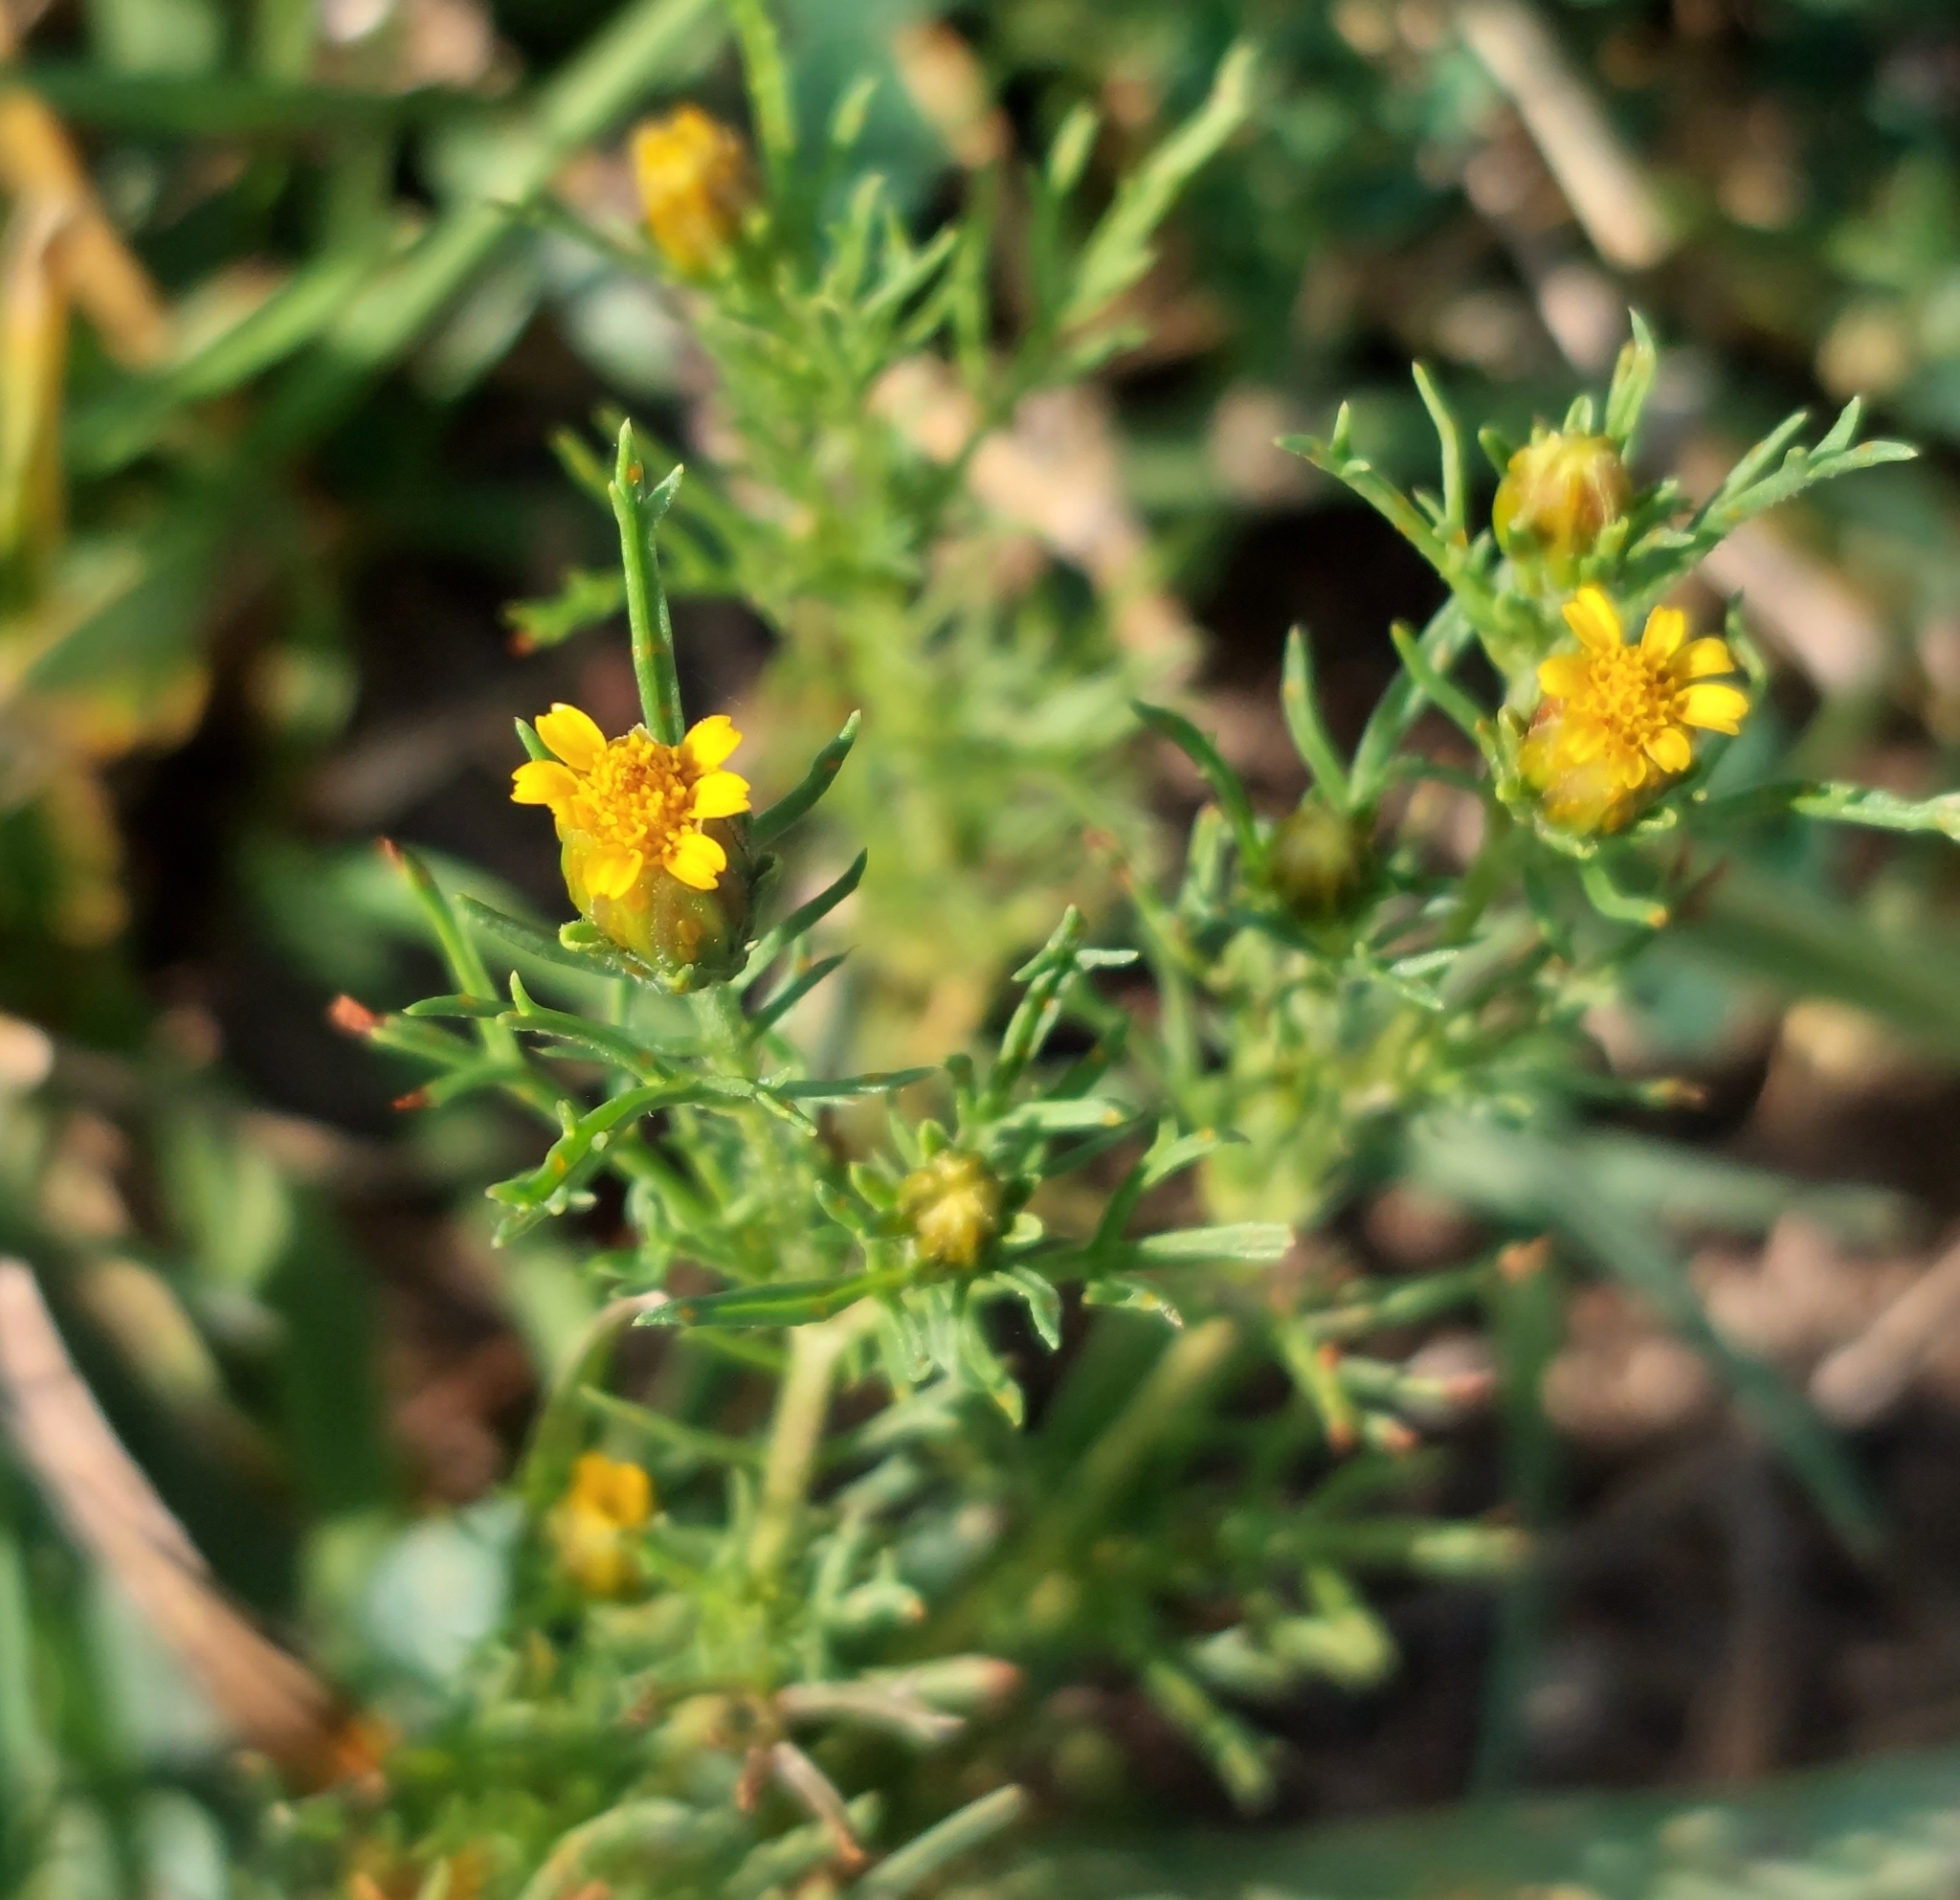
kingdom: Plantae
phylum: Tracheophyta
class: Magnoliopsida
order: Asterales
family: Asteraceae
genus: Dyssodia
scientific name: Dyssodia papposa
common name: Dogweed
